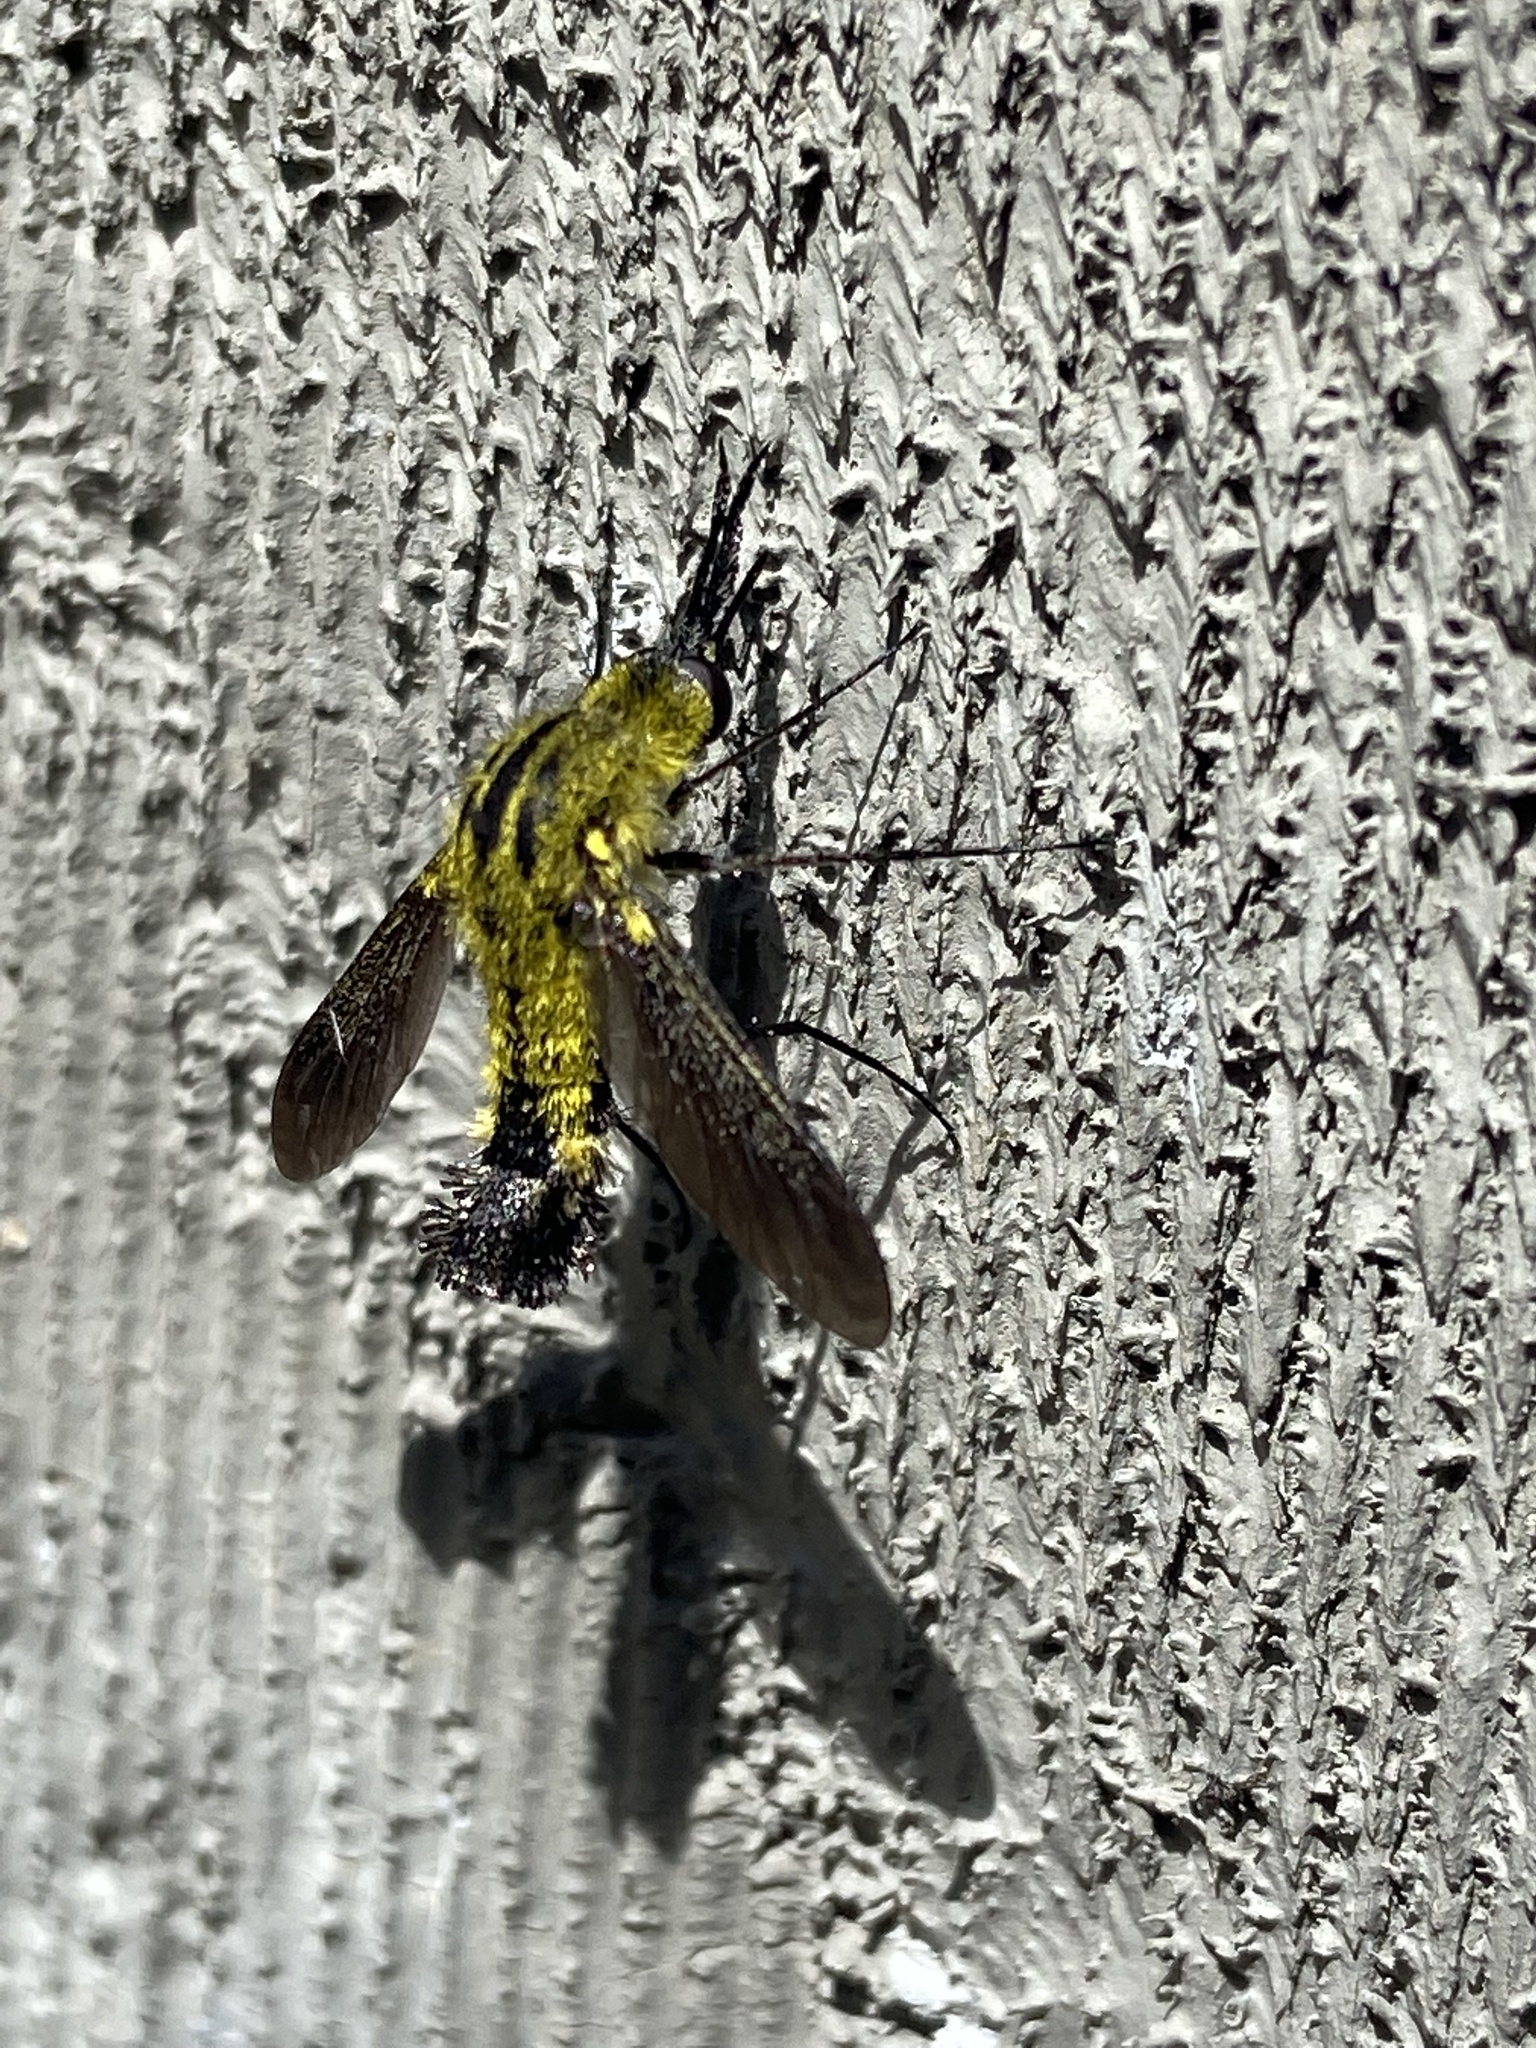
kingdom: Animalia
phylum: Arthropoda
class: Insecta
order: Diptera
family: Bombyliidae
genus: Lepidophora
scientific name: Lepidophora lutea
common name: Hunchback bee fly
